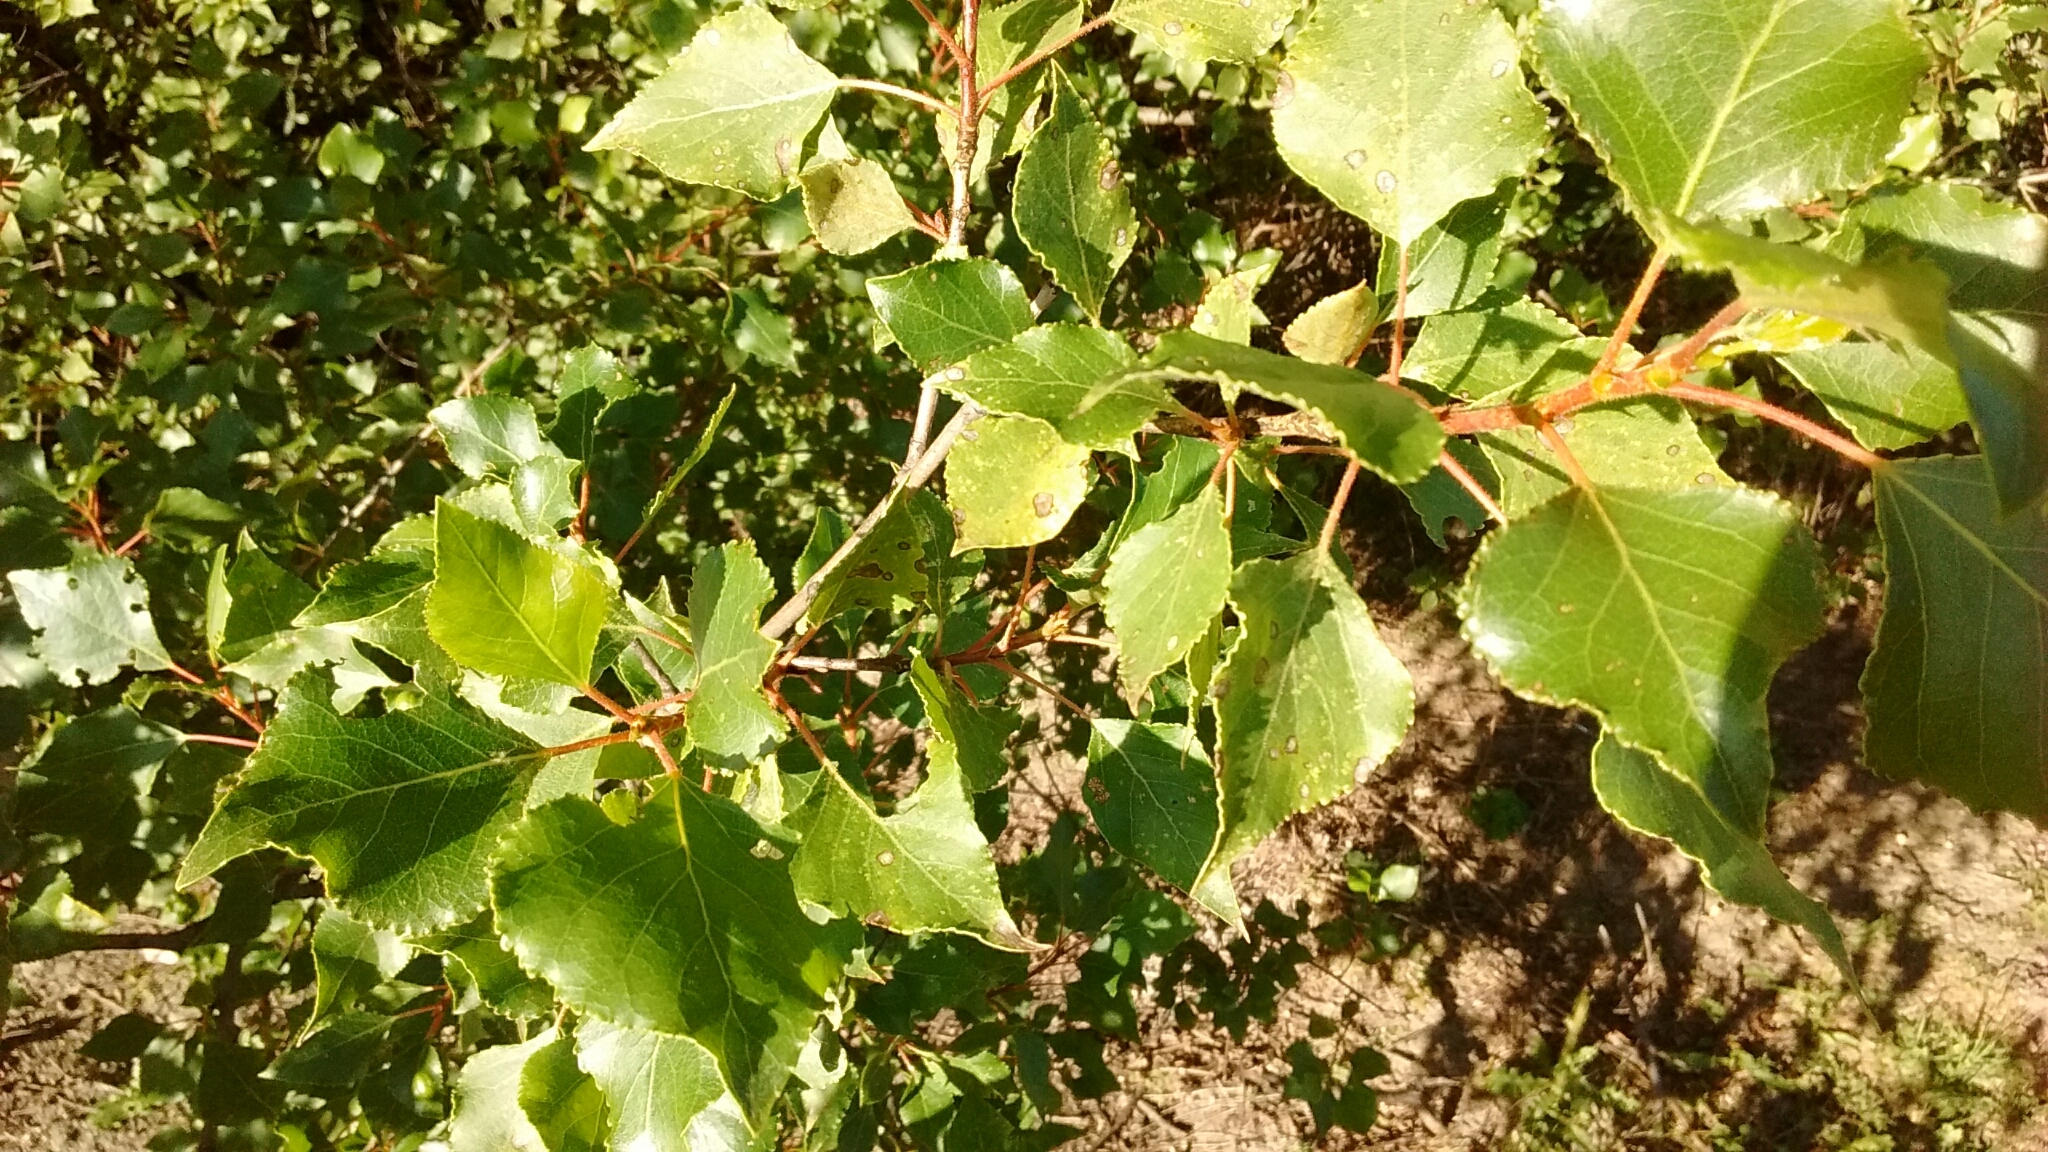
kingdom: Plantae
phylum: Tracheophyta
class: Magnoliopsida
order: Malpighiales
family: Salicaceae
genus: Populus
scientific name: Populus nigra
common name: Black poplar
